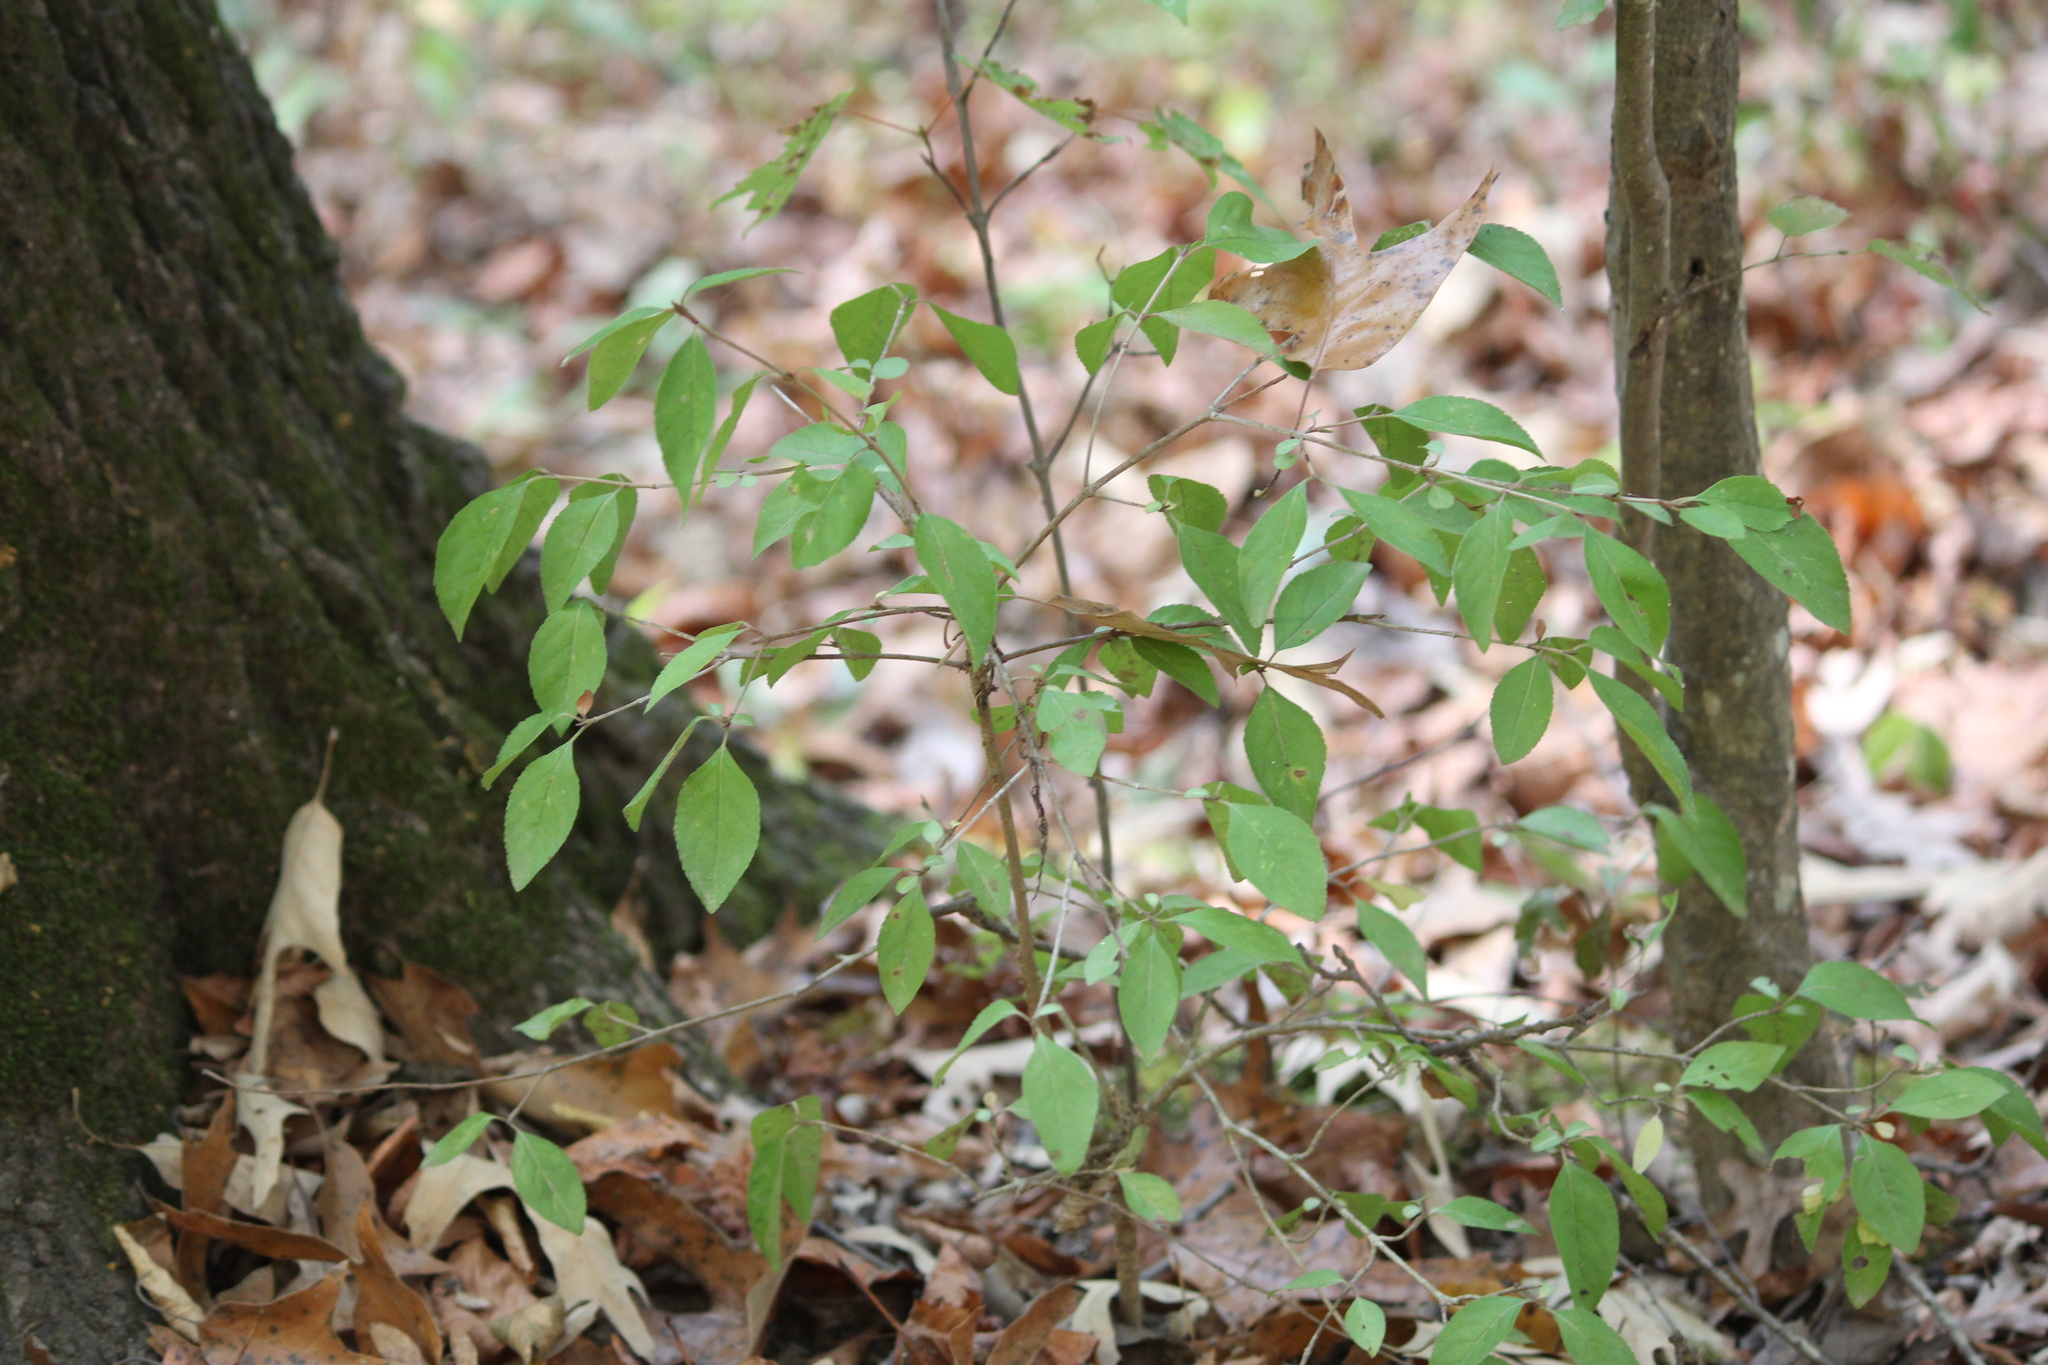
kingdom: Plantae
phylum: Tracheophyta
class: Magnoliopsida
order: Dipsacales
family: Viburnaceae
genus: Viburnum
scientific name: Viburnum prunifolium
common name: Black haw
